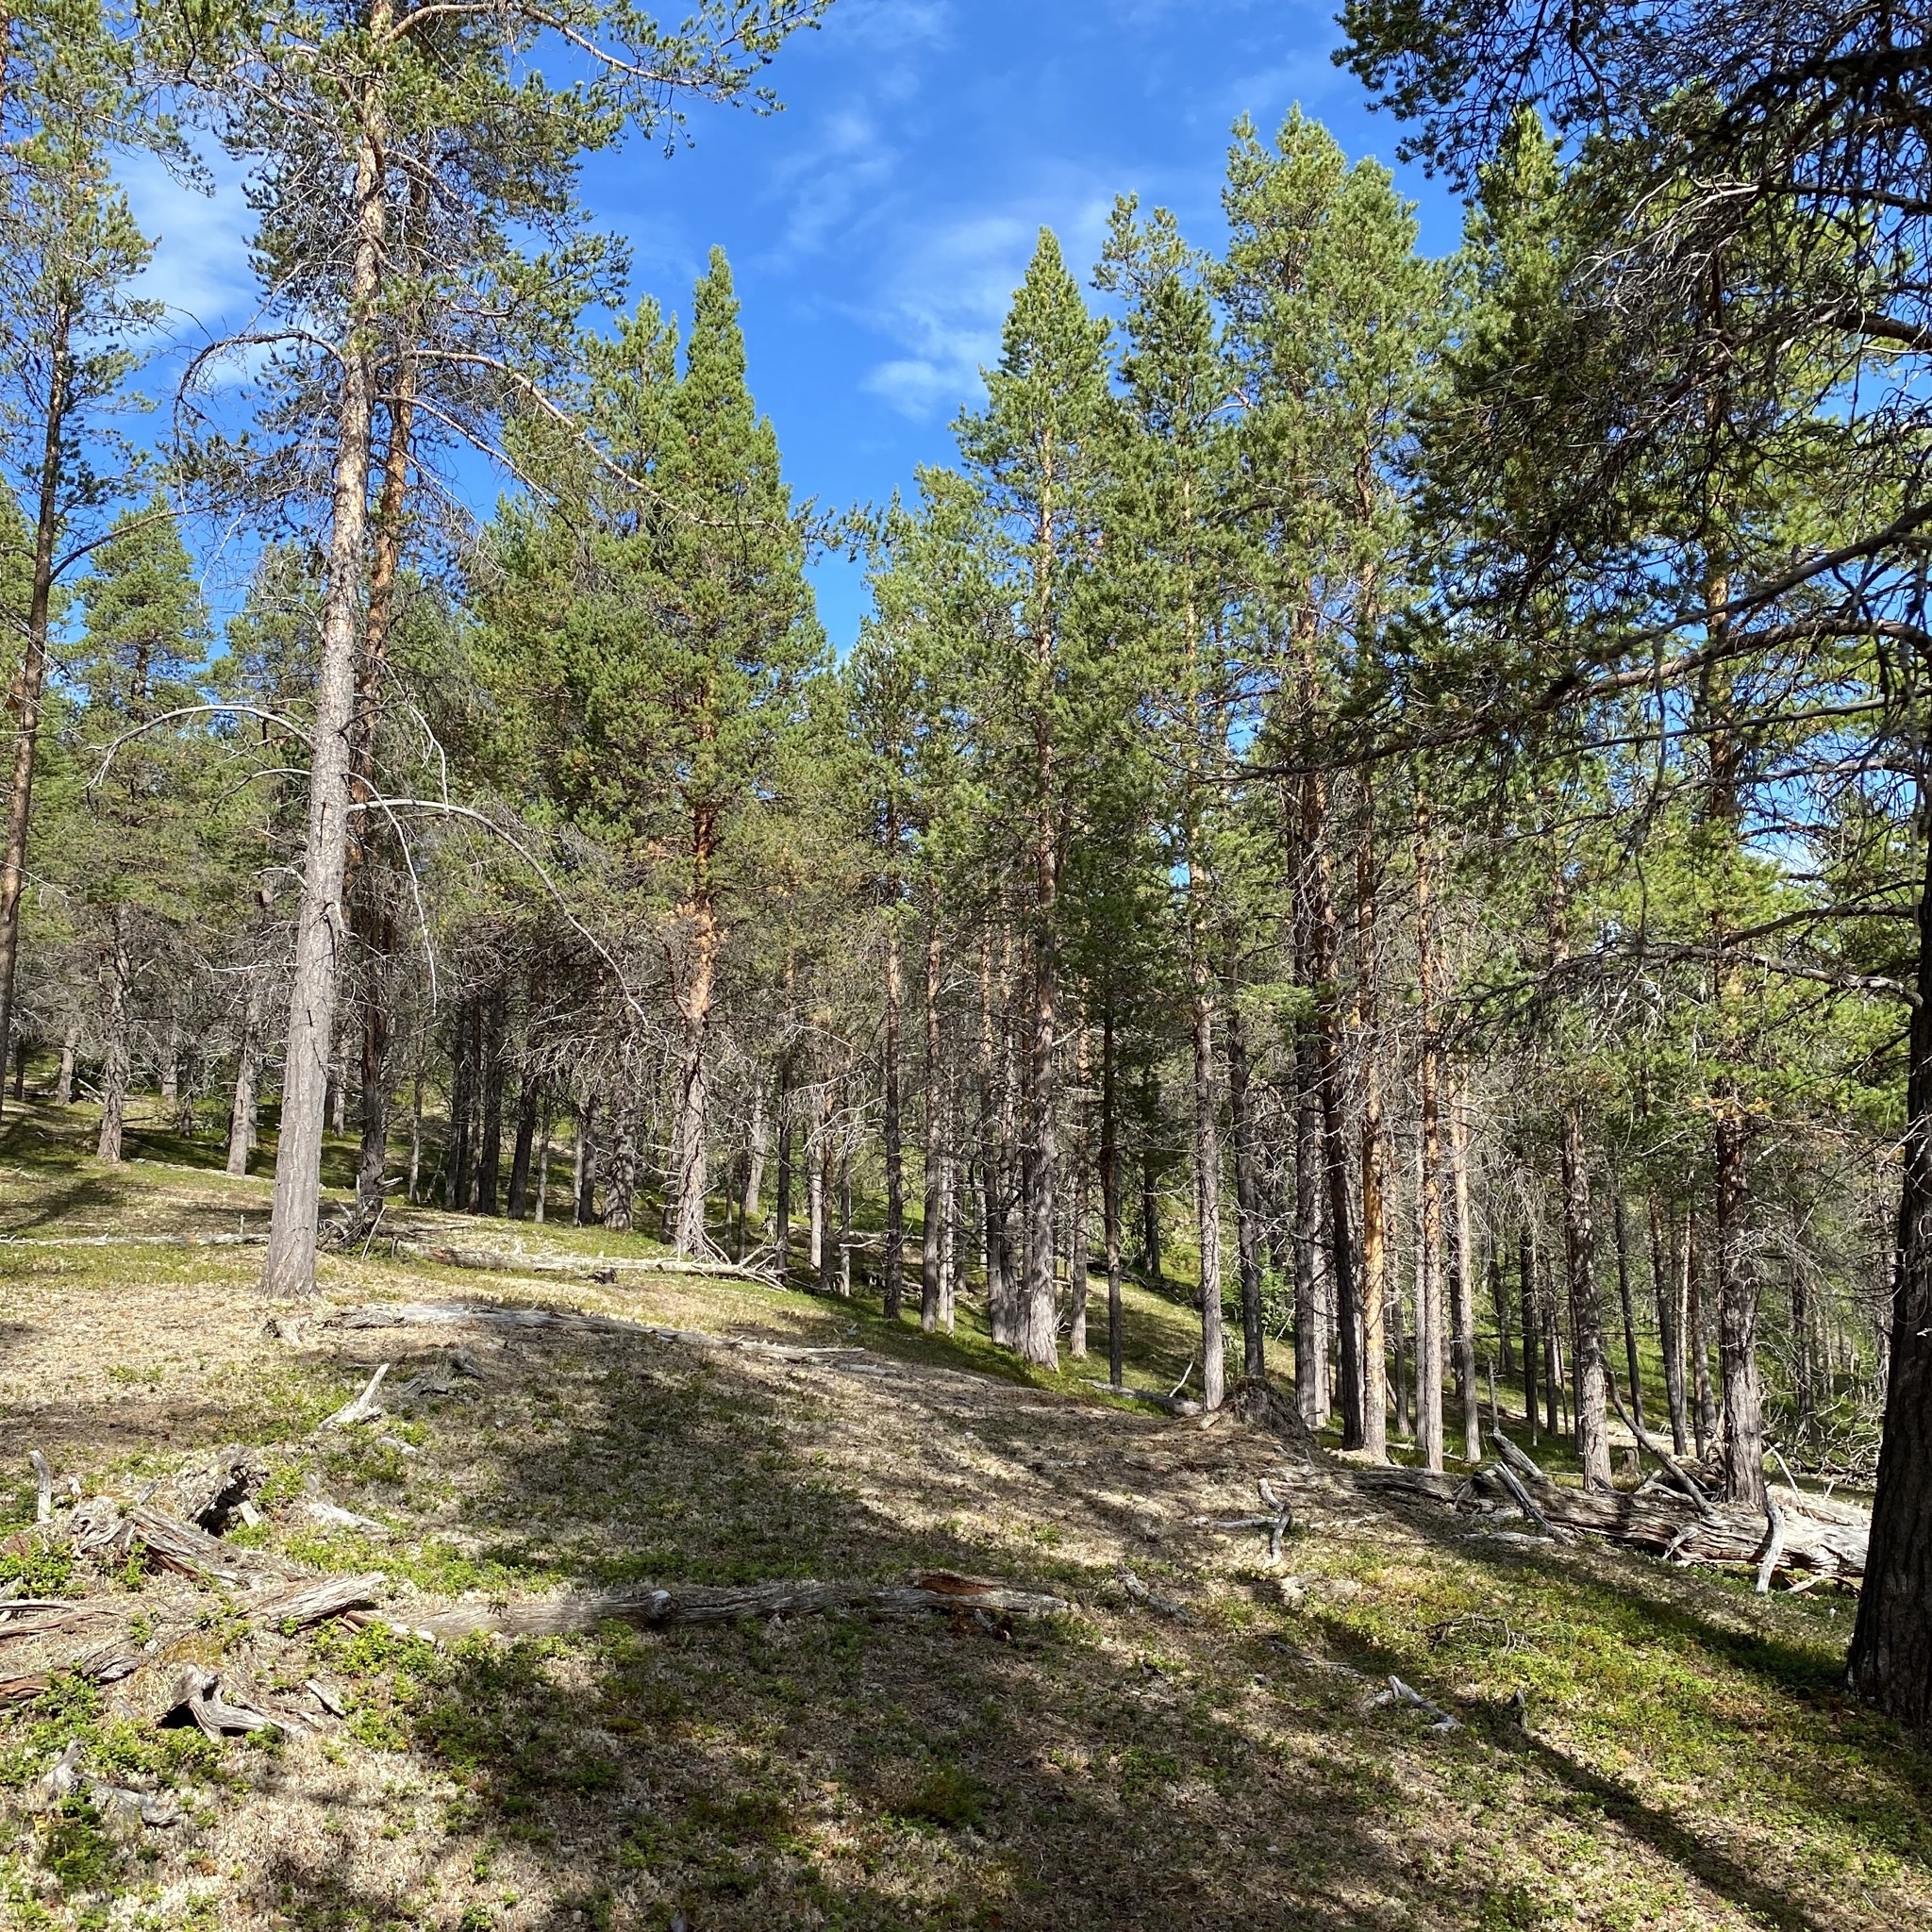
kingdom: Plantae
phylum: Tracheophyta
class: Pinopsida
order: Pinales
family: Pinaceae
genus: Pinus
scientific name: Pinus sylvestris
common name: Scots pine
